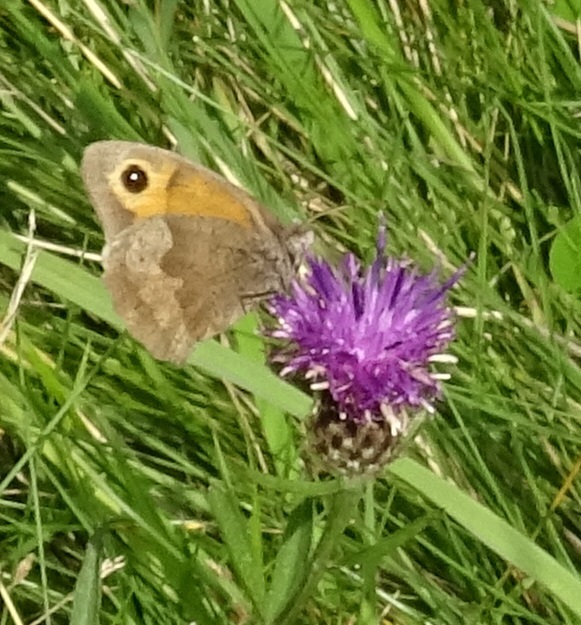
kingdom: Animalia
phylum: Arthropoda
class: Insecta
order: Lepidoptera
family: Nymphalidae
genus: Maniola
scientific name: Maniola jurtina
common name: Meadow brown
